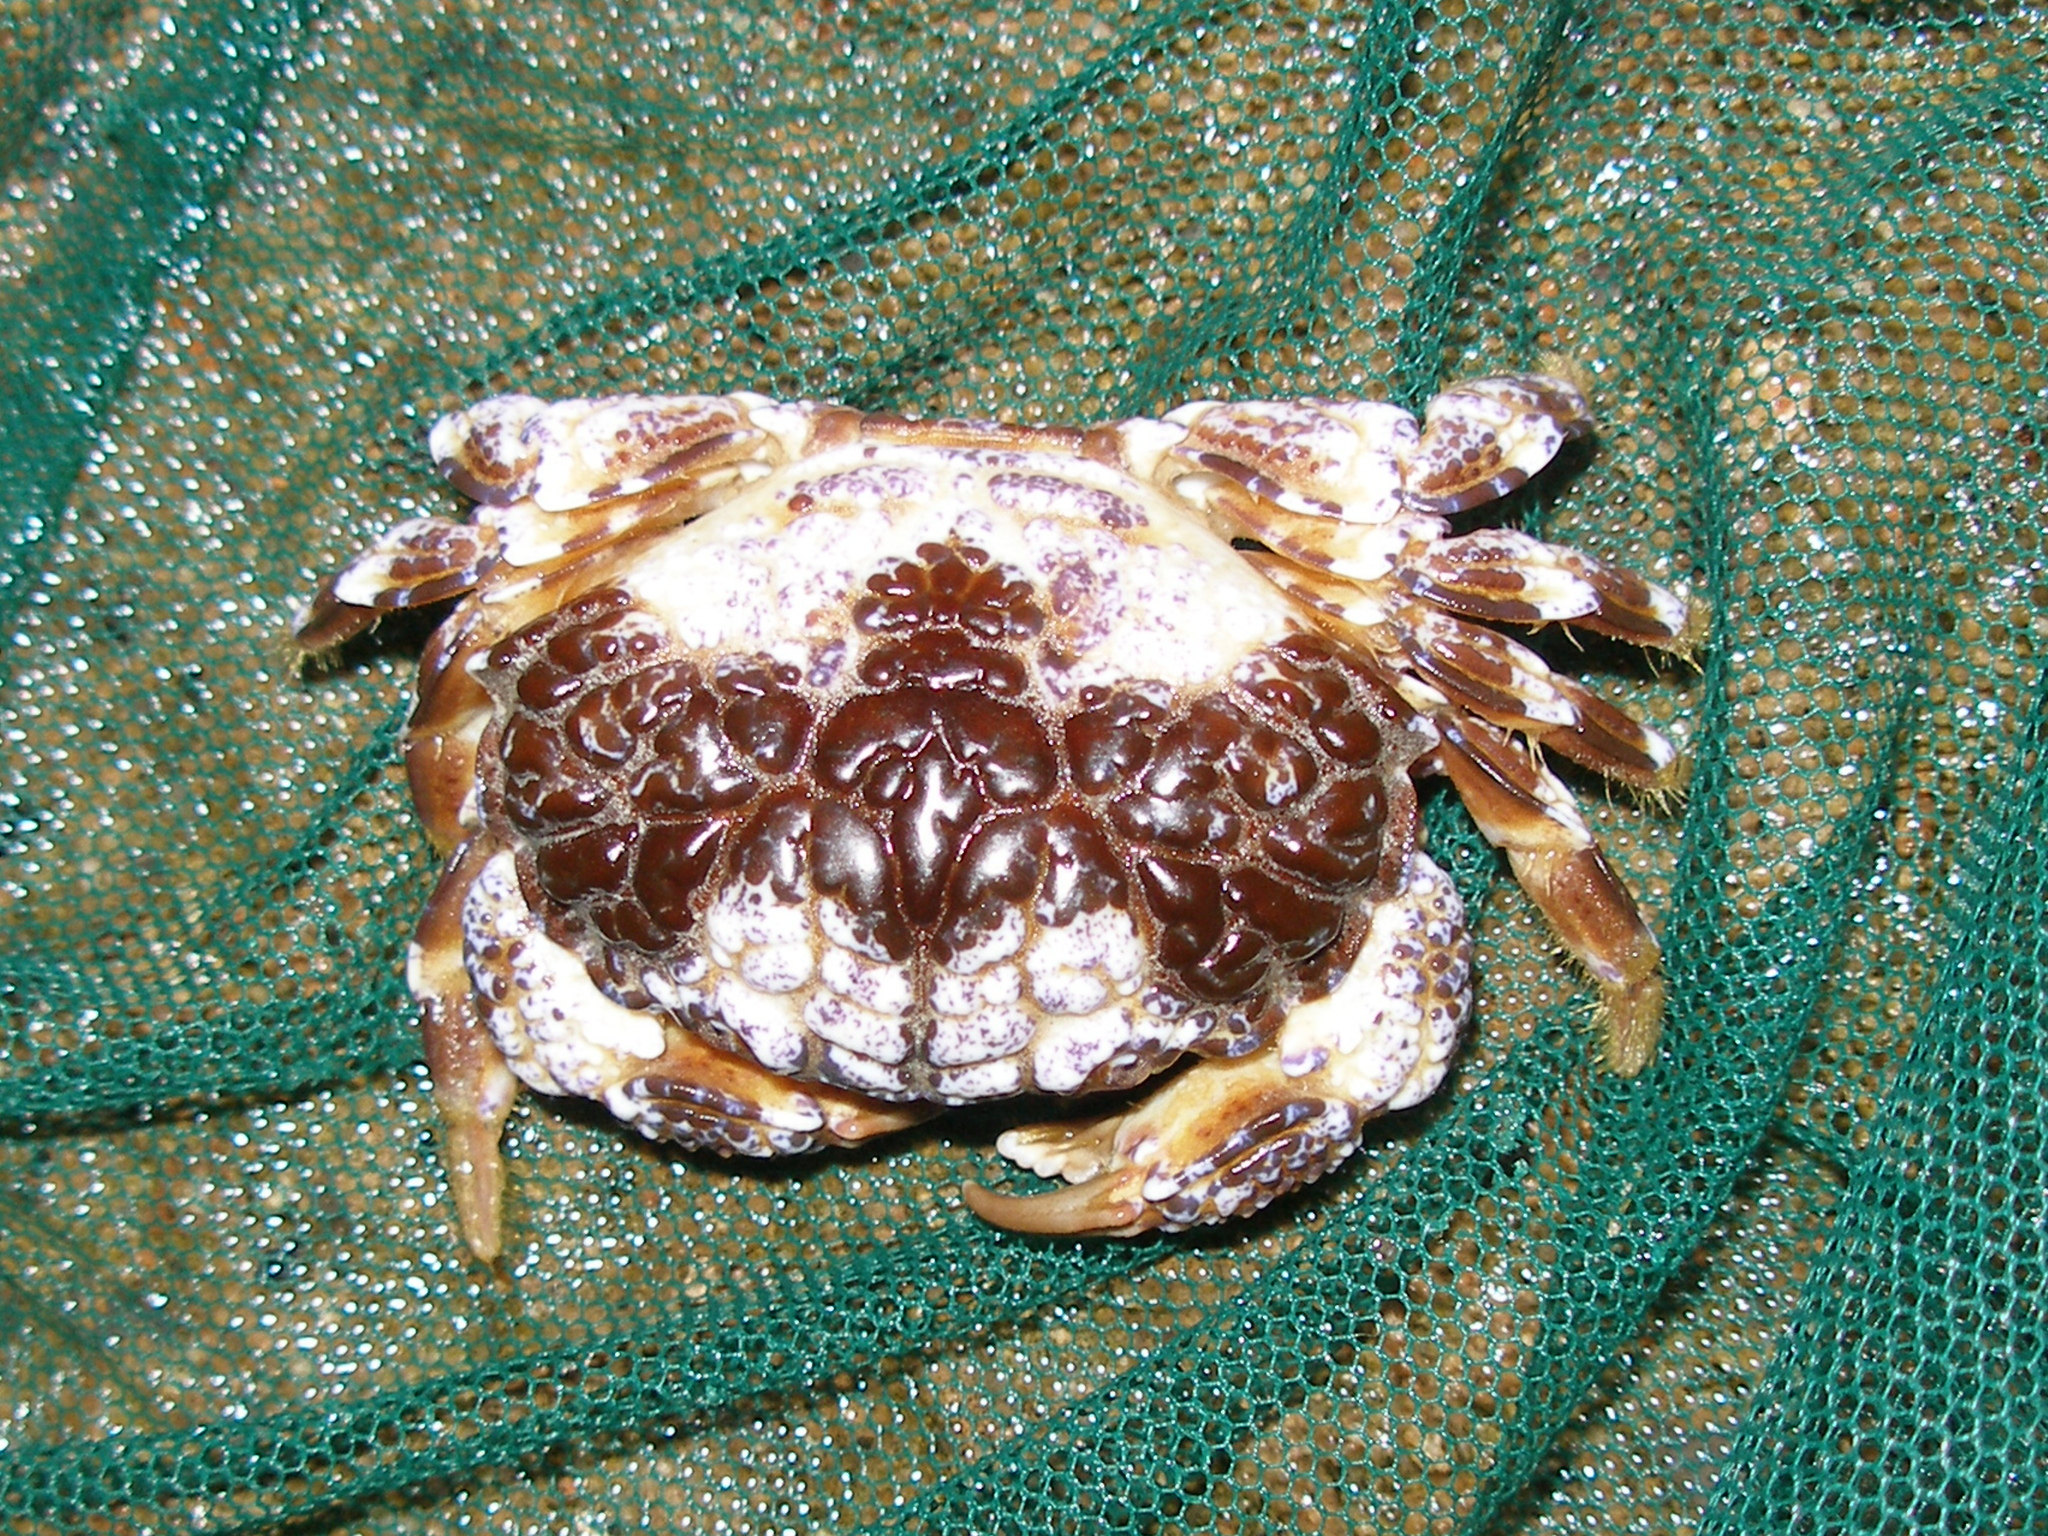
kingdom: Animalia
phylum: Arthropoda
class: Malacostraca
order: Decapoda
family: Xanthidae
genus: Zosimus
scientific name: Zosimus aeneus
